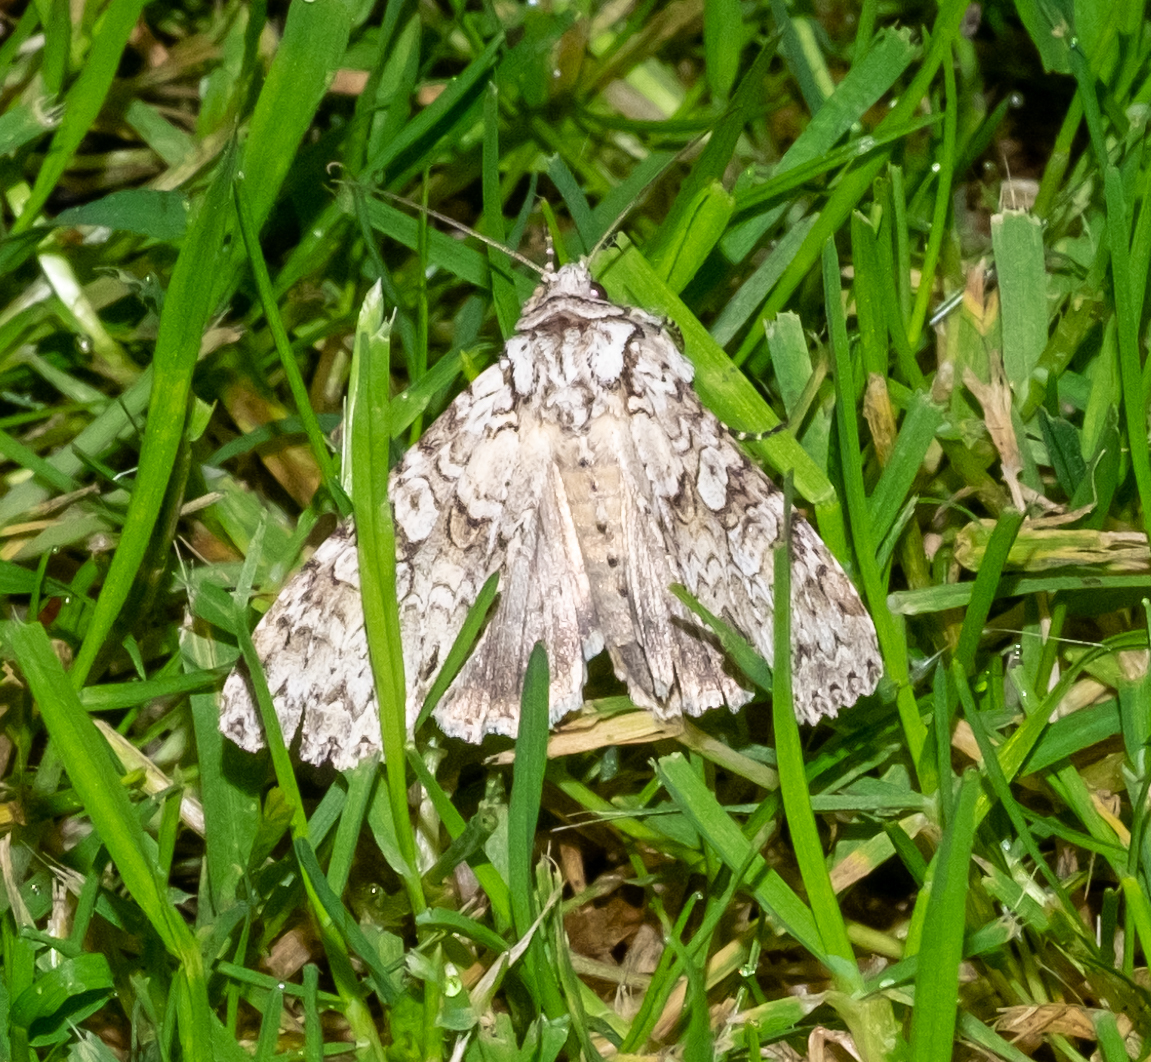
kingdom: Animalia
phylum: Arthropoda
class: Insecta
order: Lepidoptera
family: Noctuidae
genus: Polia
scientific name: Polia nebulosa
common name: Grey arches
